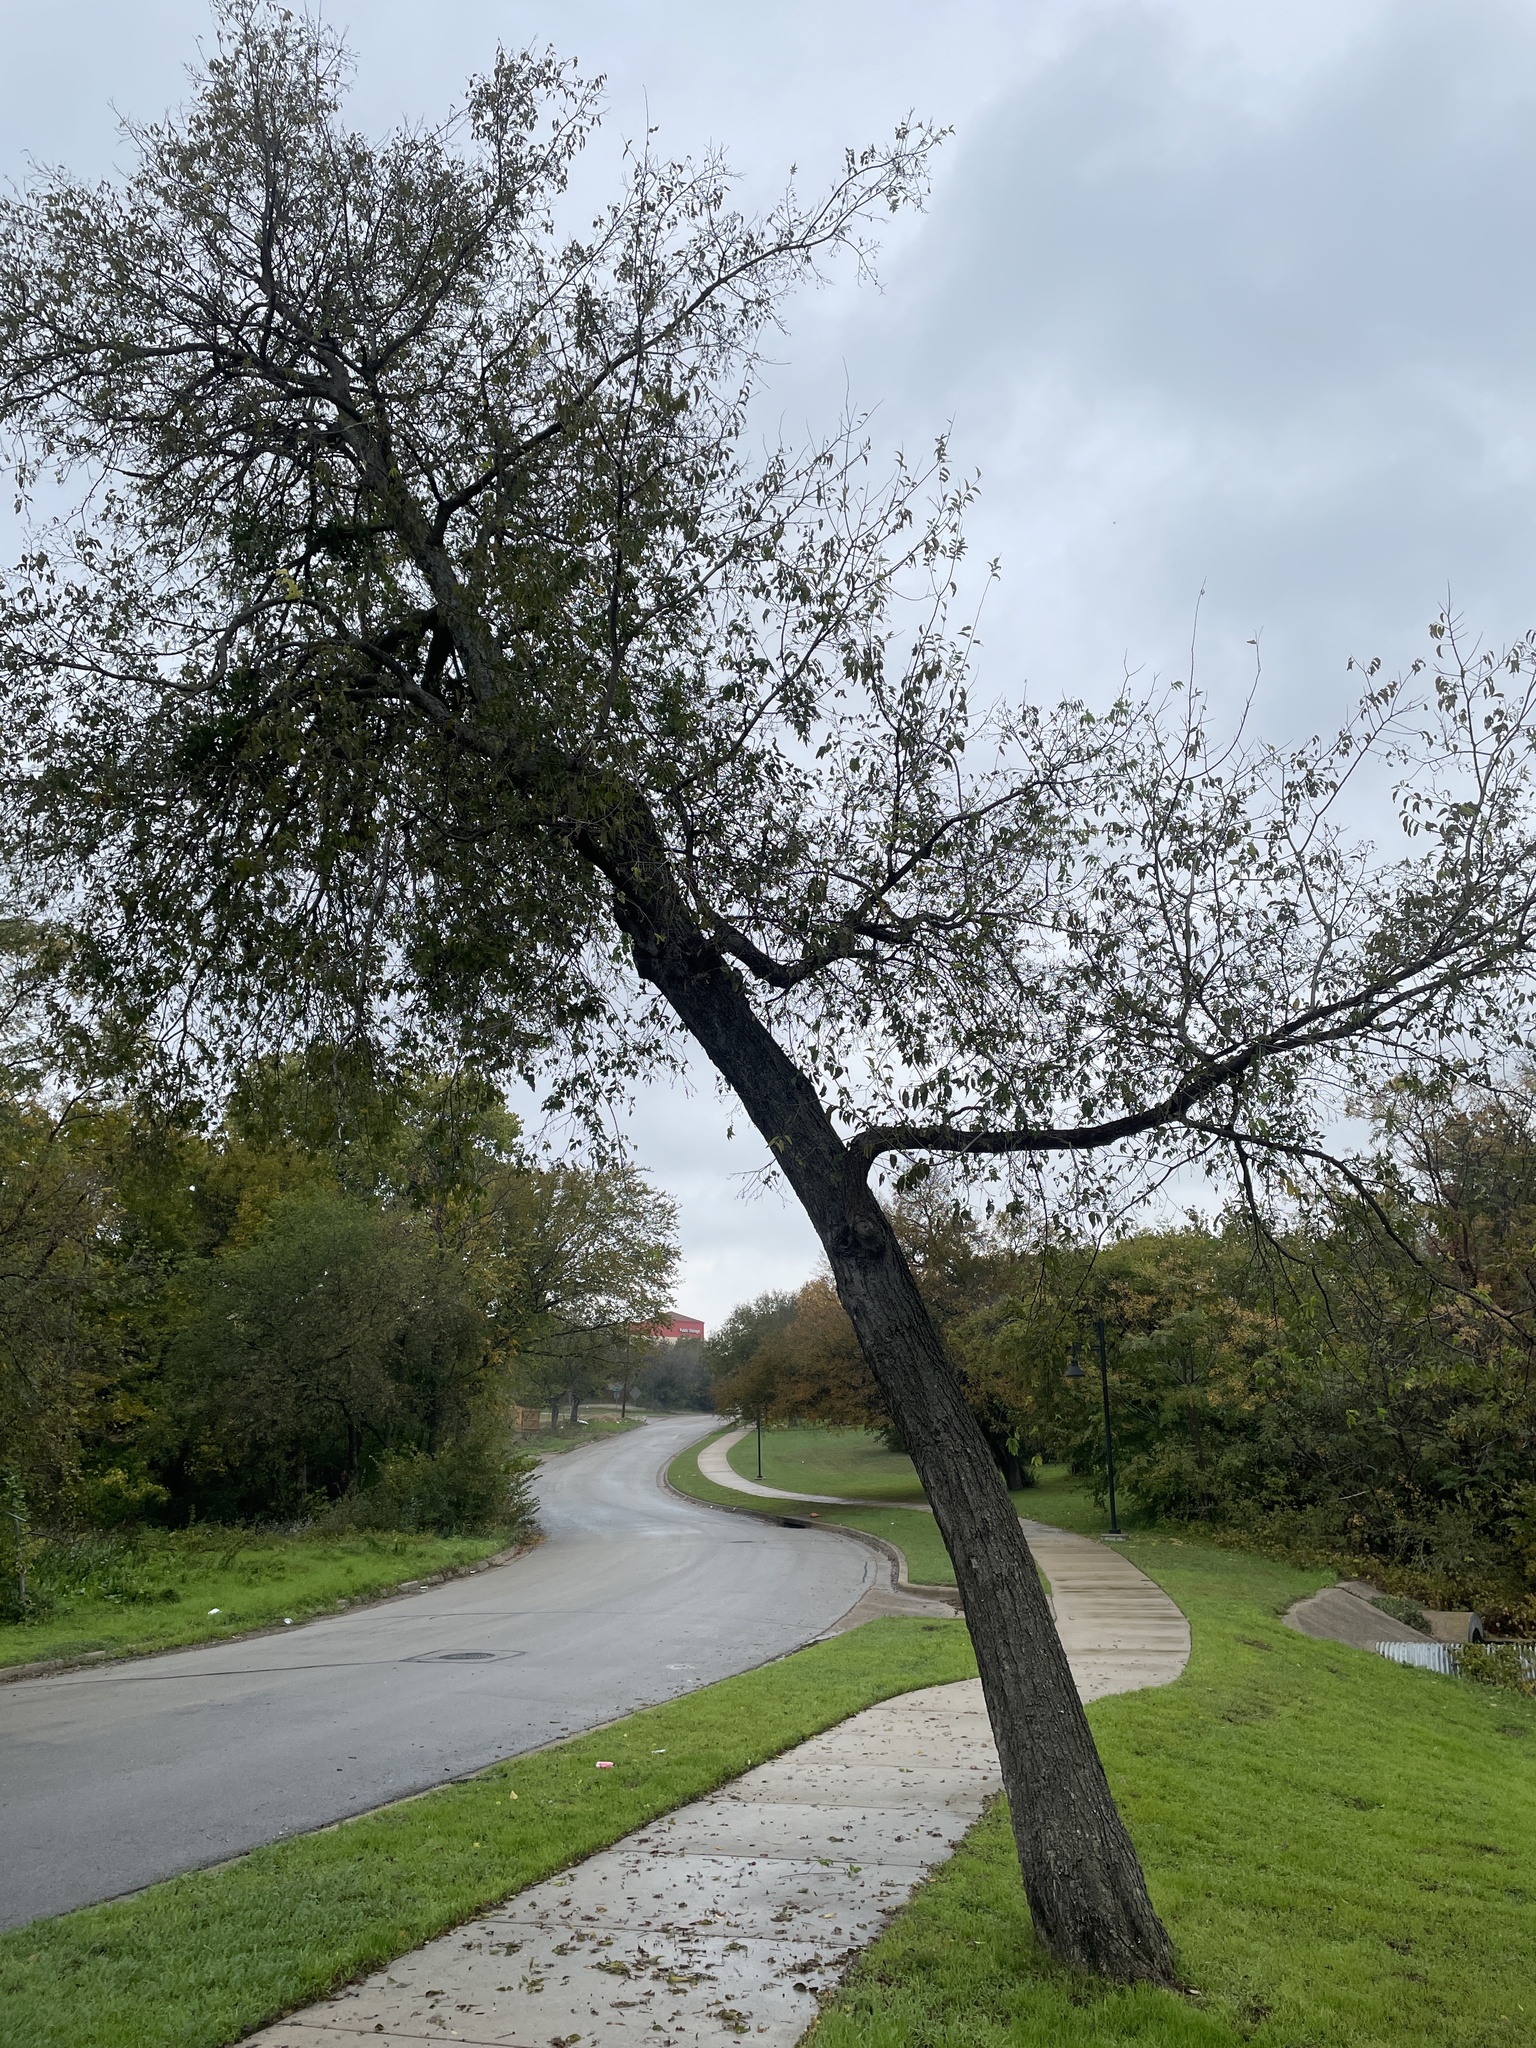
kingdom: Plantae
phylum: Tracheophyta
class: Magnoliopsida
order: Rosales
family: Cannabaceae
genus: Celtis
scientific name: Celtis laevigata
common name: Sugarberry
